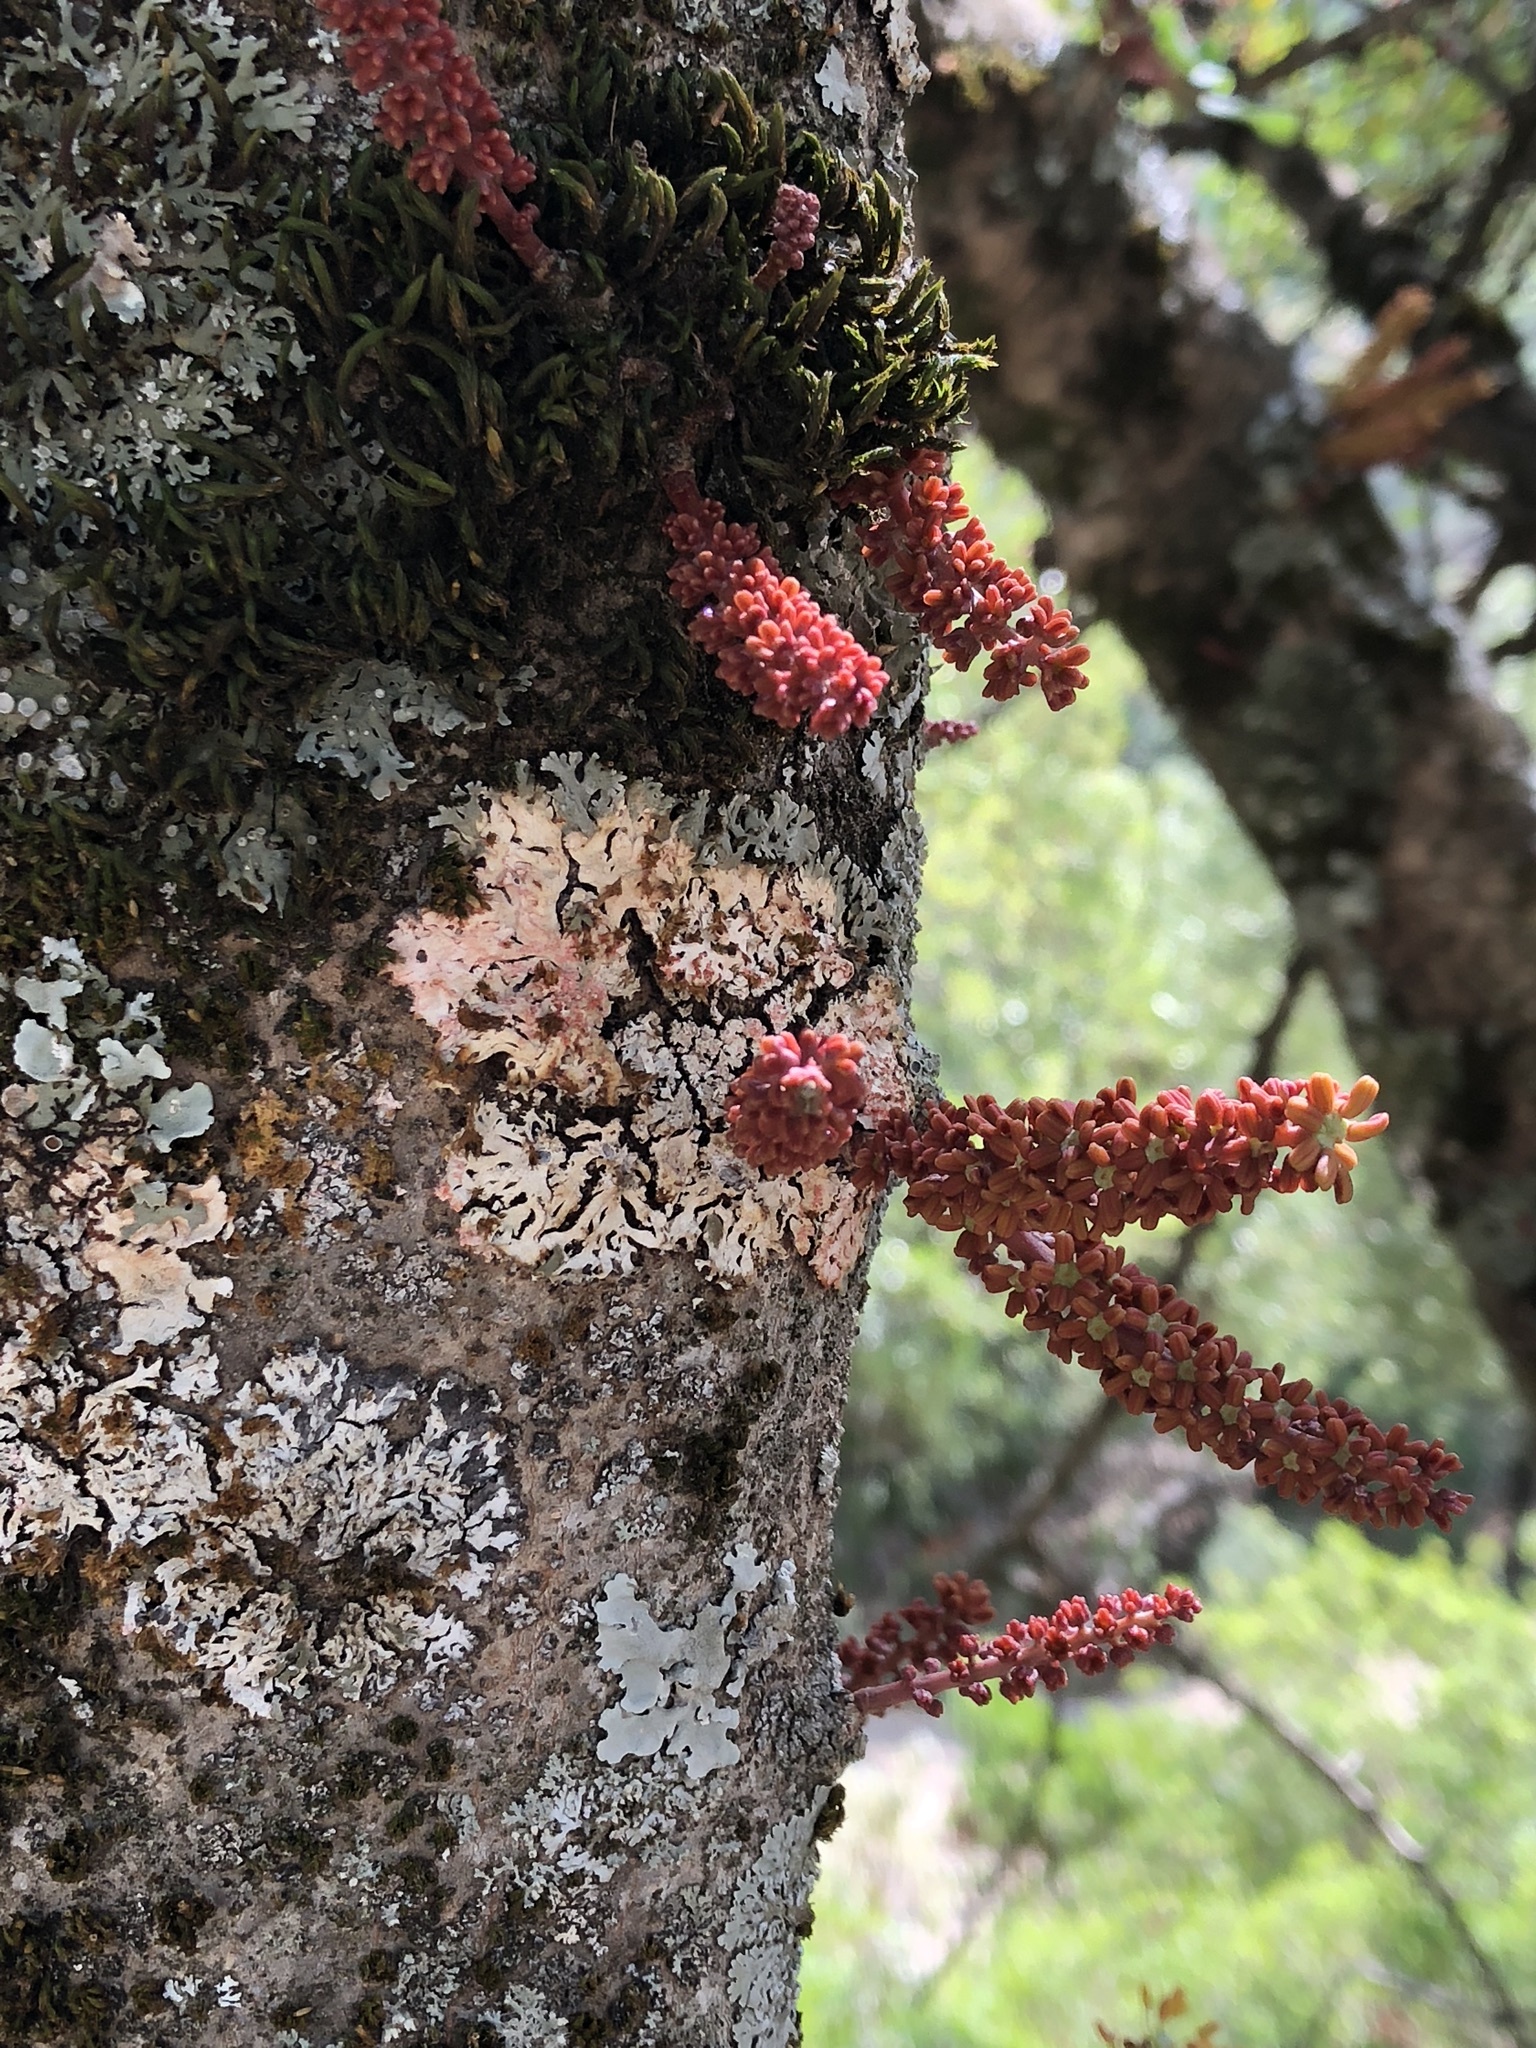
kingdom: Plantae
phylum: Tracheophyta
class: Magnoliopsida
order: Fabales
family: Fabaceae
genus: Ceratonia
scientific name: Ceratonia siliqua
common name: Carob
